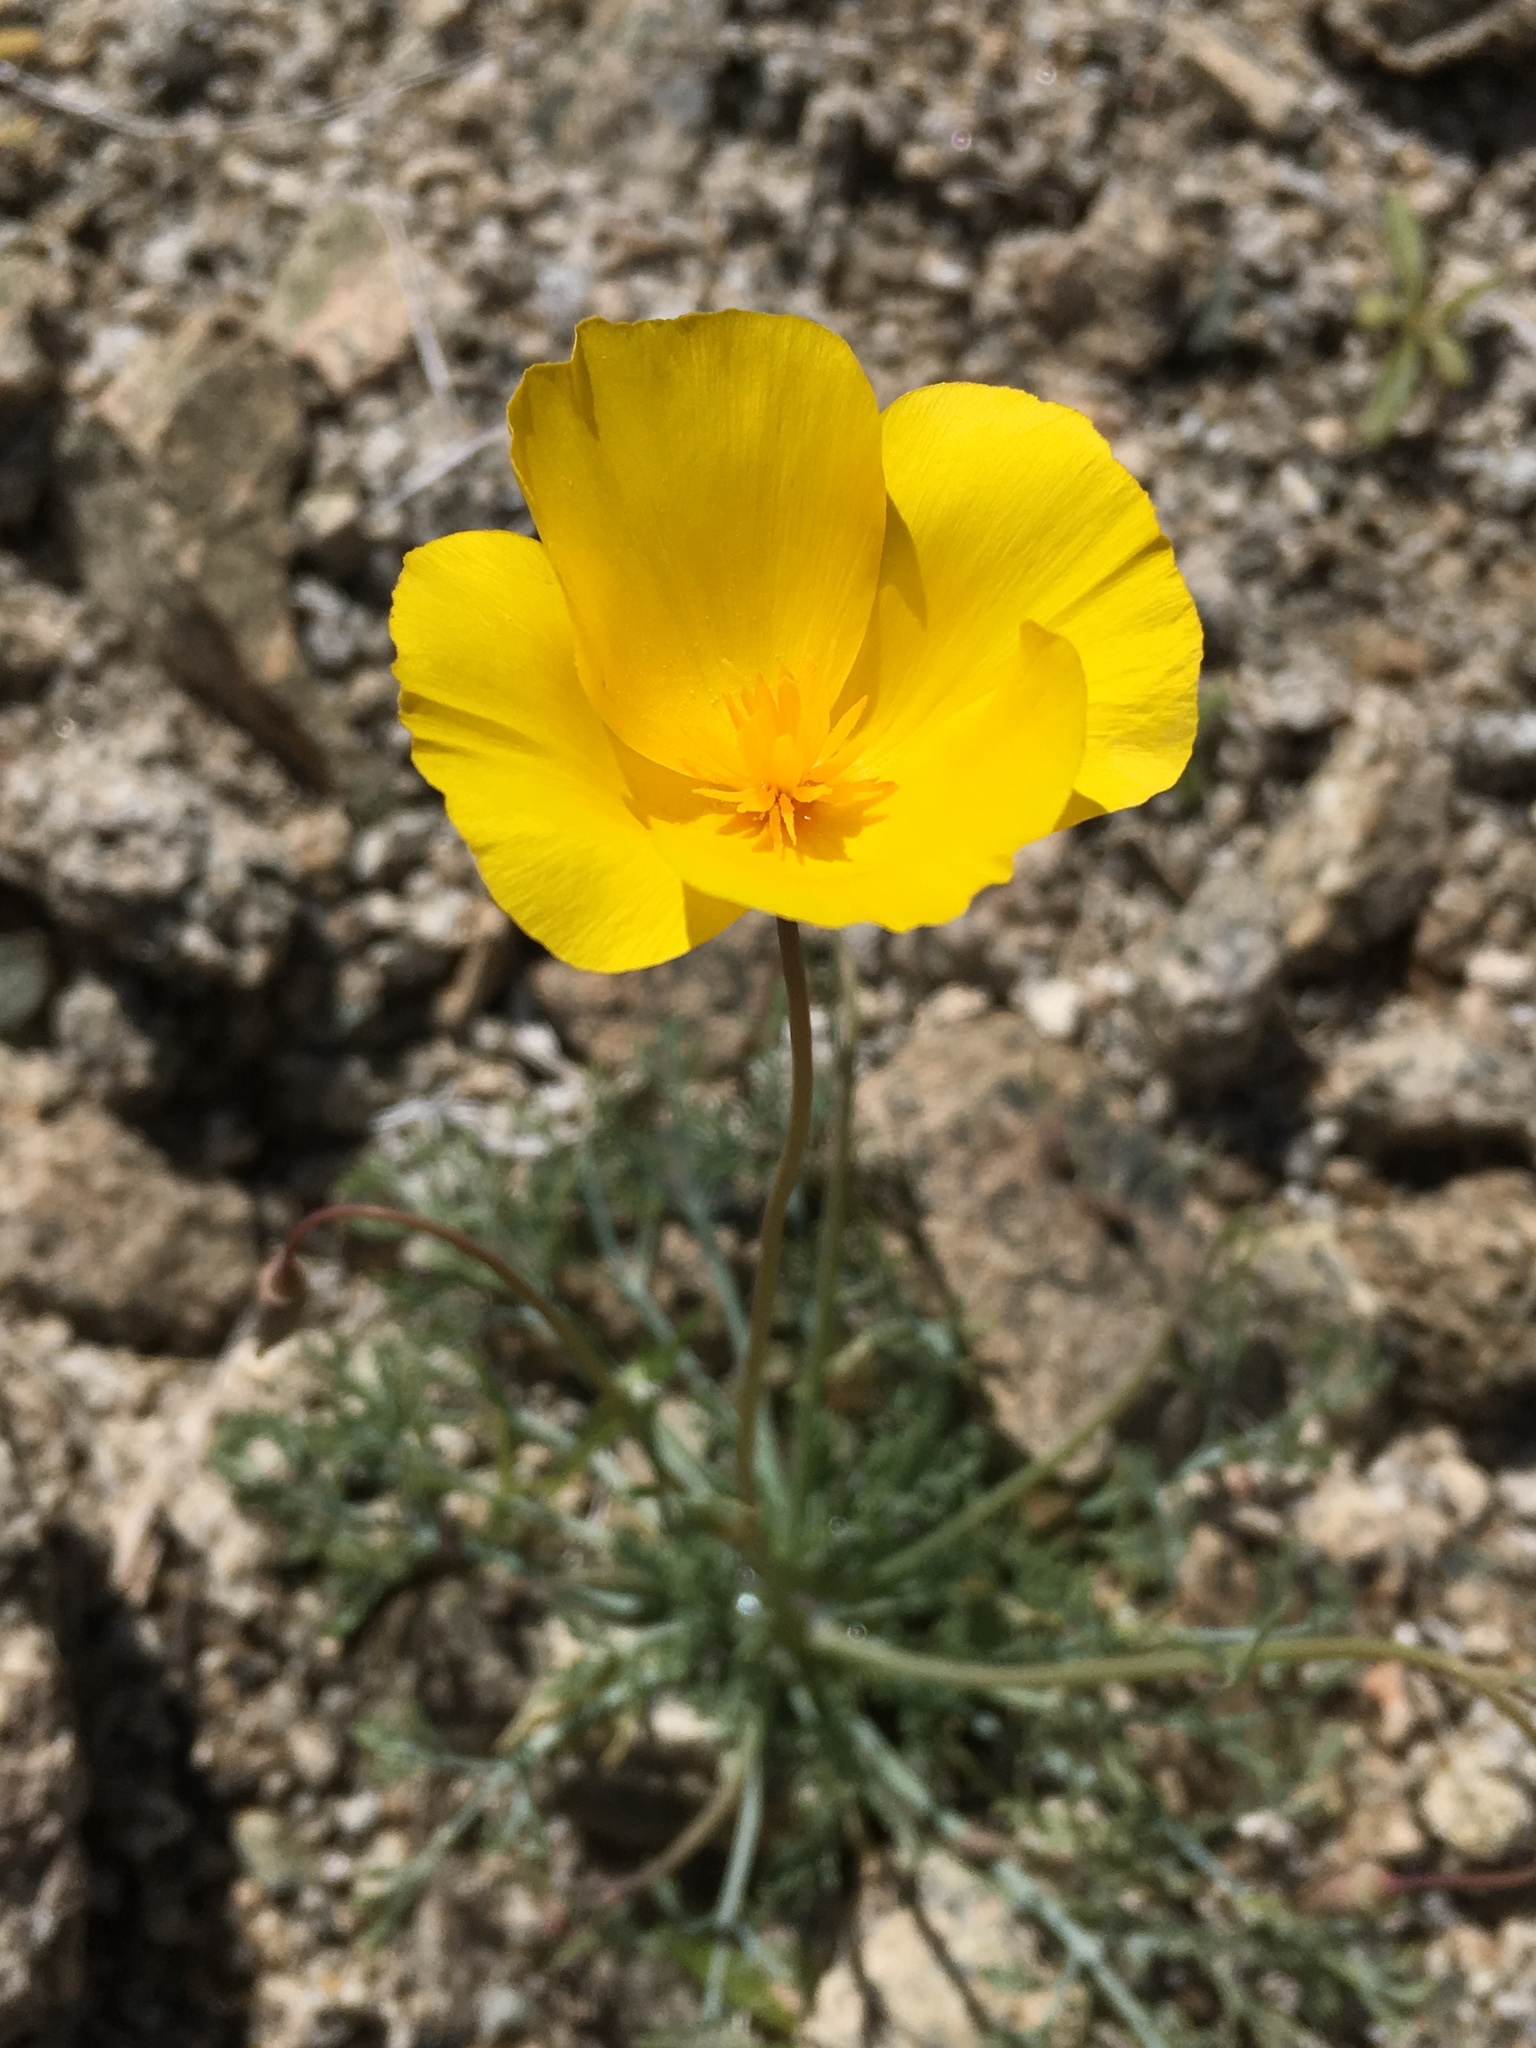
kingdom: Plantae
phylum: Tracheophyta
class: Magnoliopsida
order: Ranunculales
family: Papaveraceae
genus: Eschscholzia
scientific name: Eschscholzia papastillii
